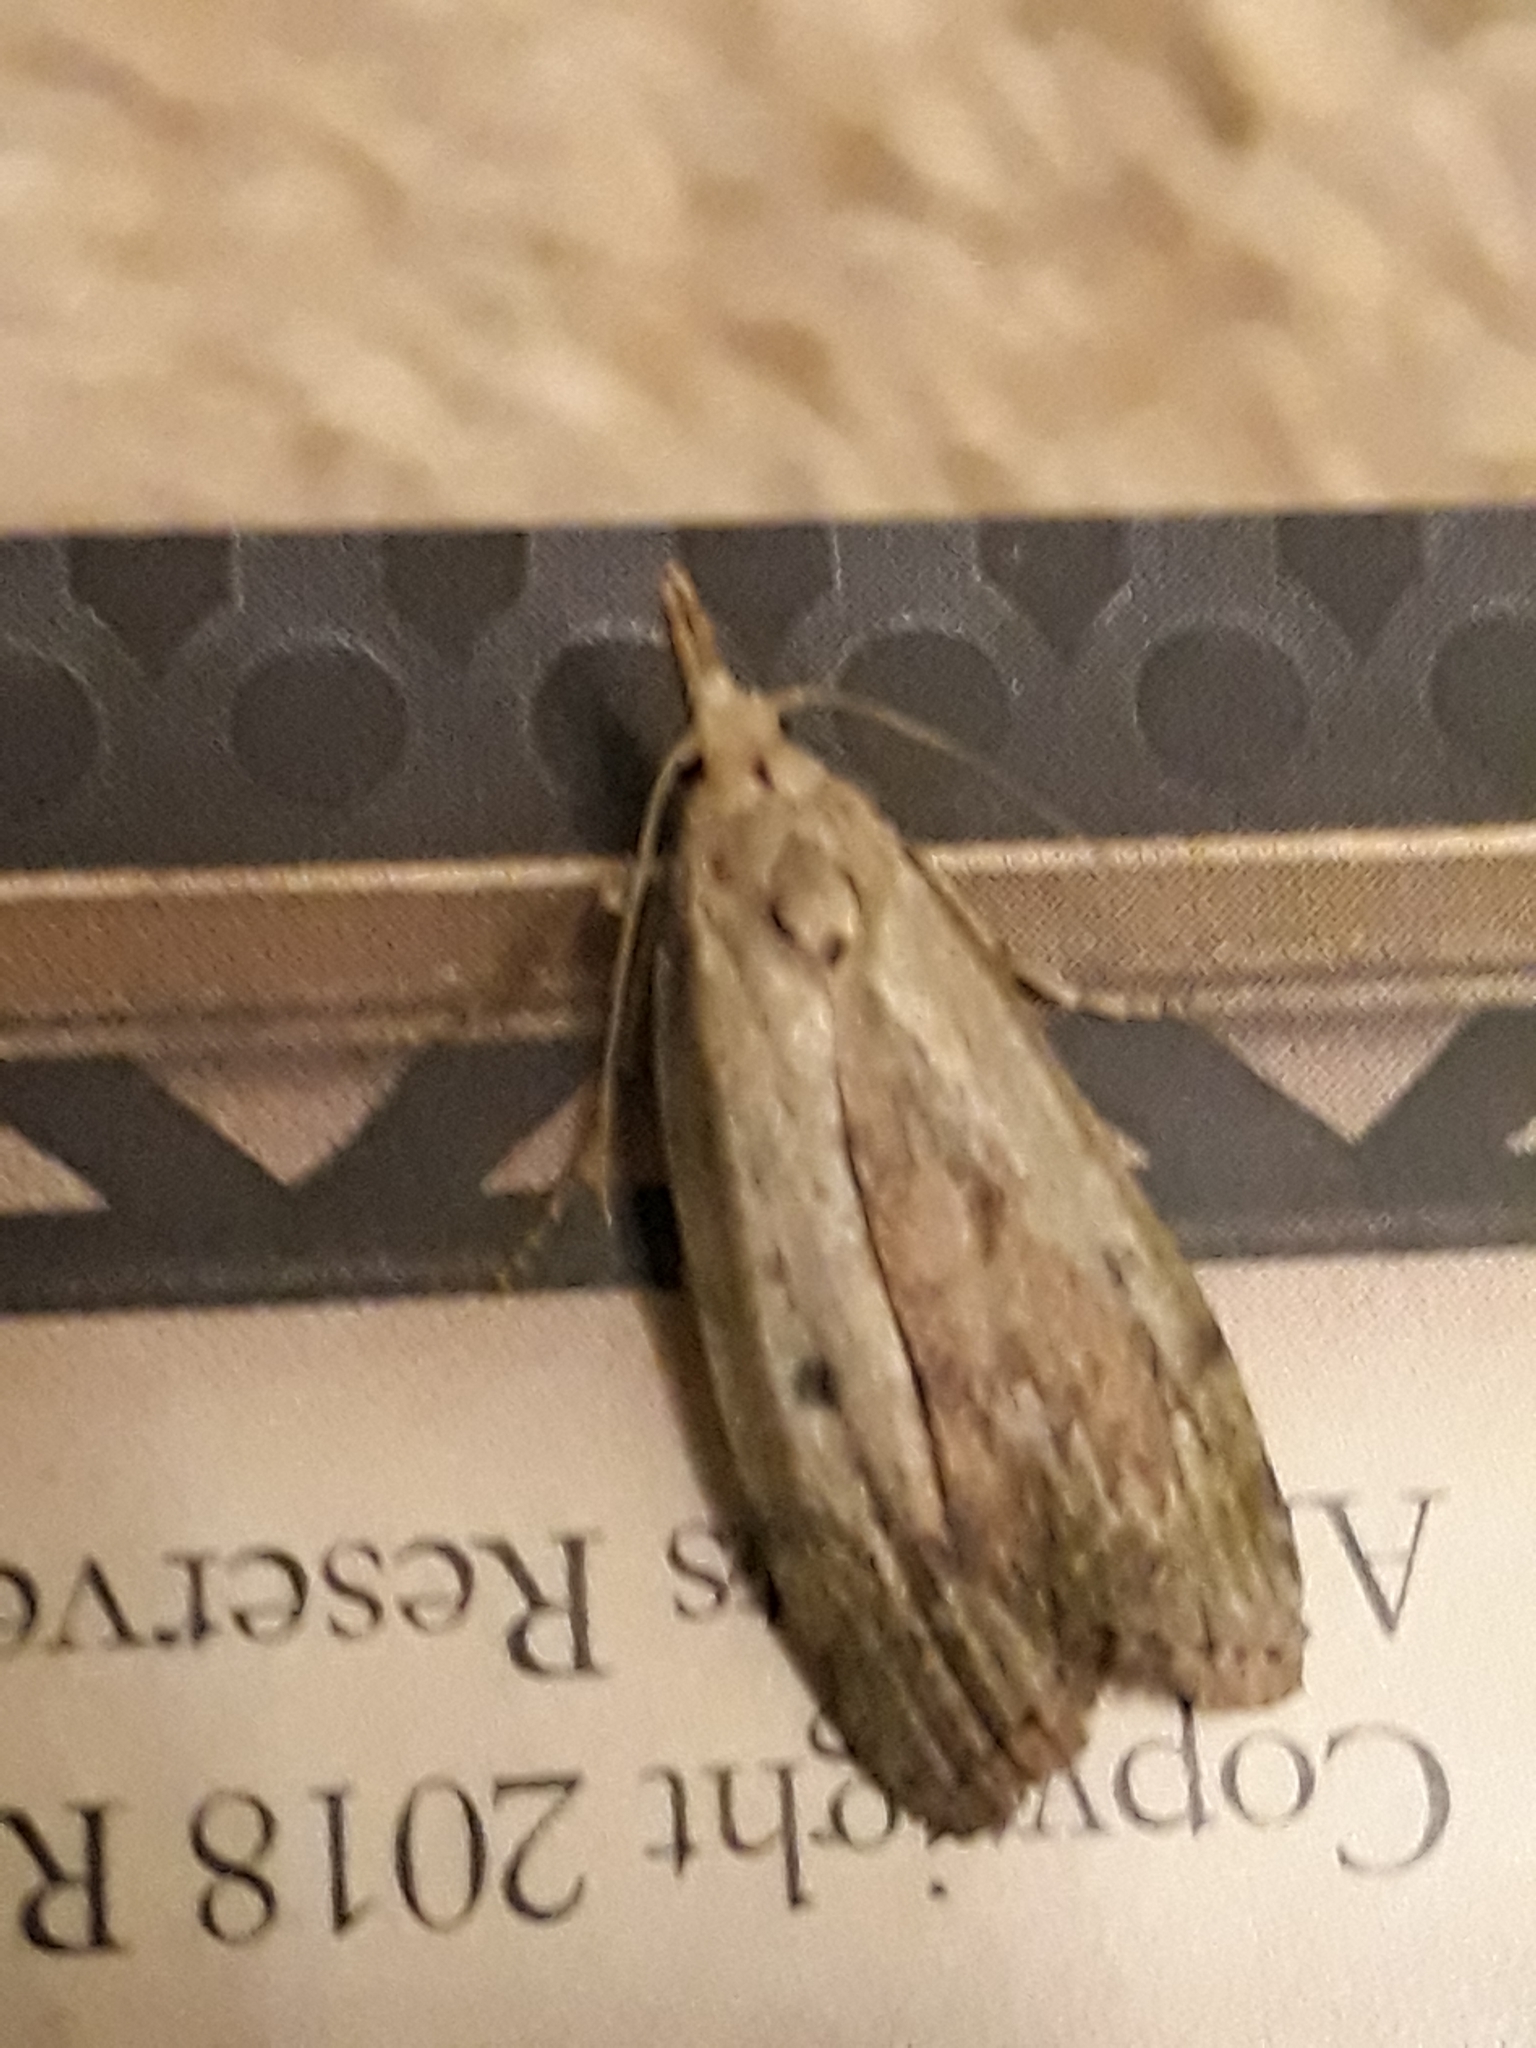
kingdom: Animalia
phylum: Arthropoda
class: Insecta
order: Lepidoptera
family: Pyralidae
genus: Aphomia
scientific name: Aphomia sociella
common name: Bee moth
